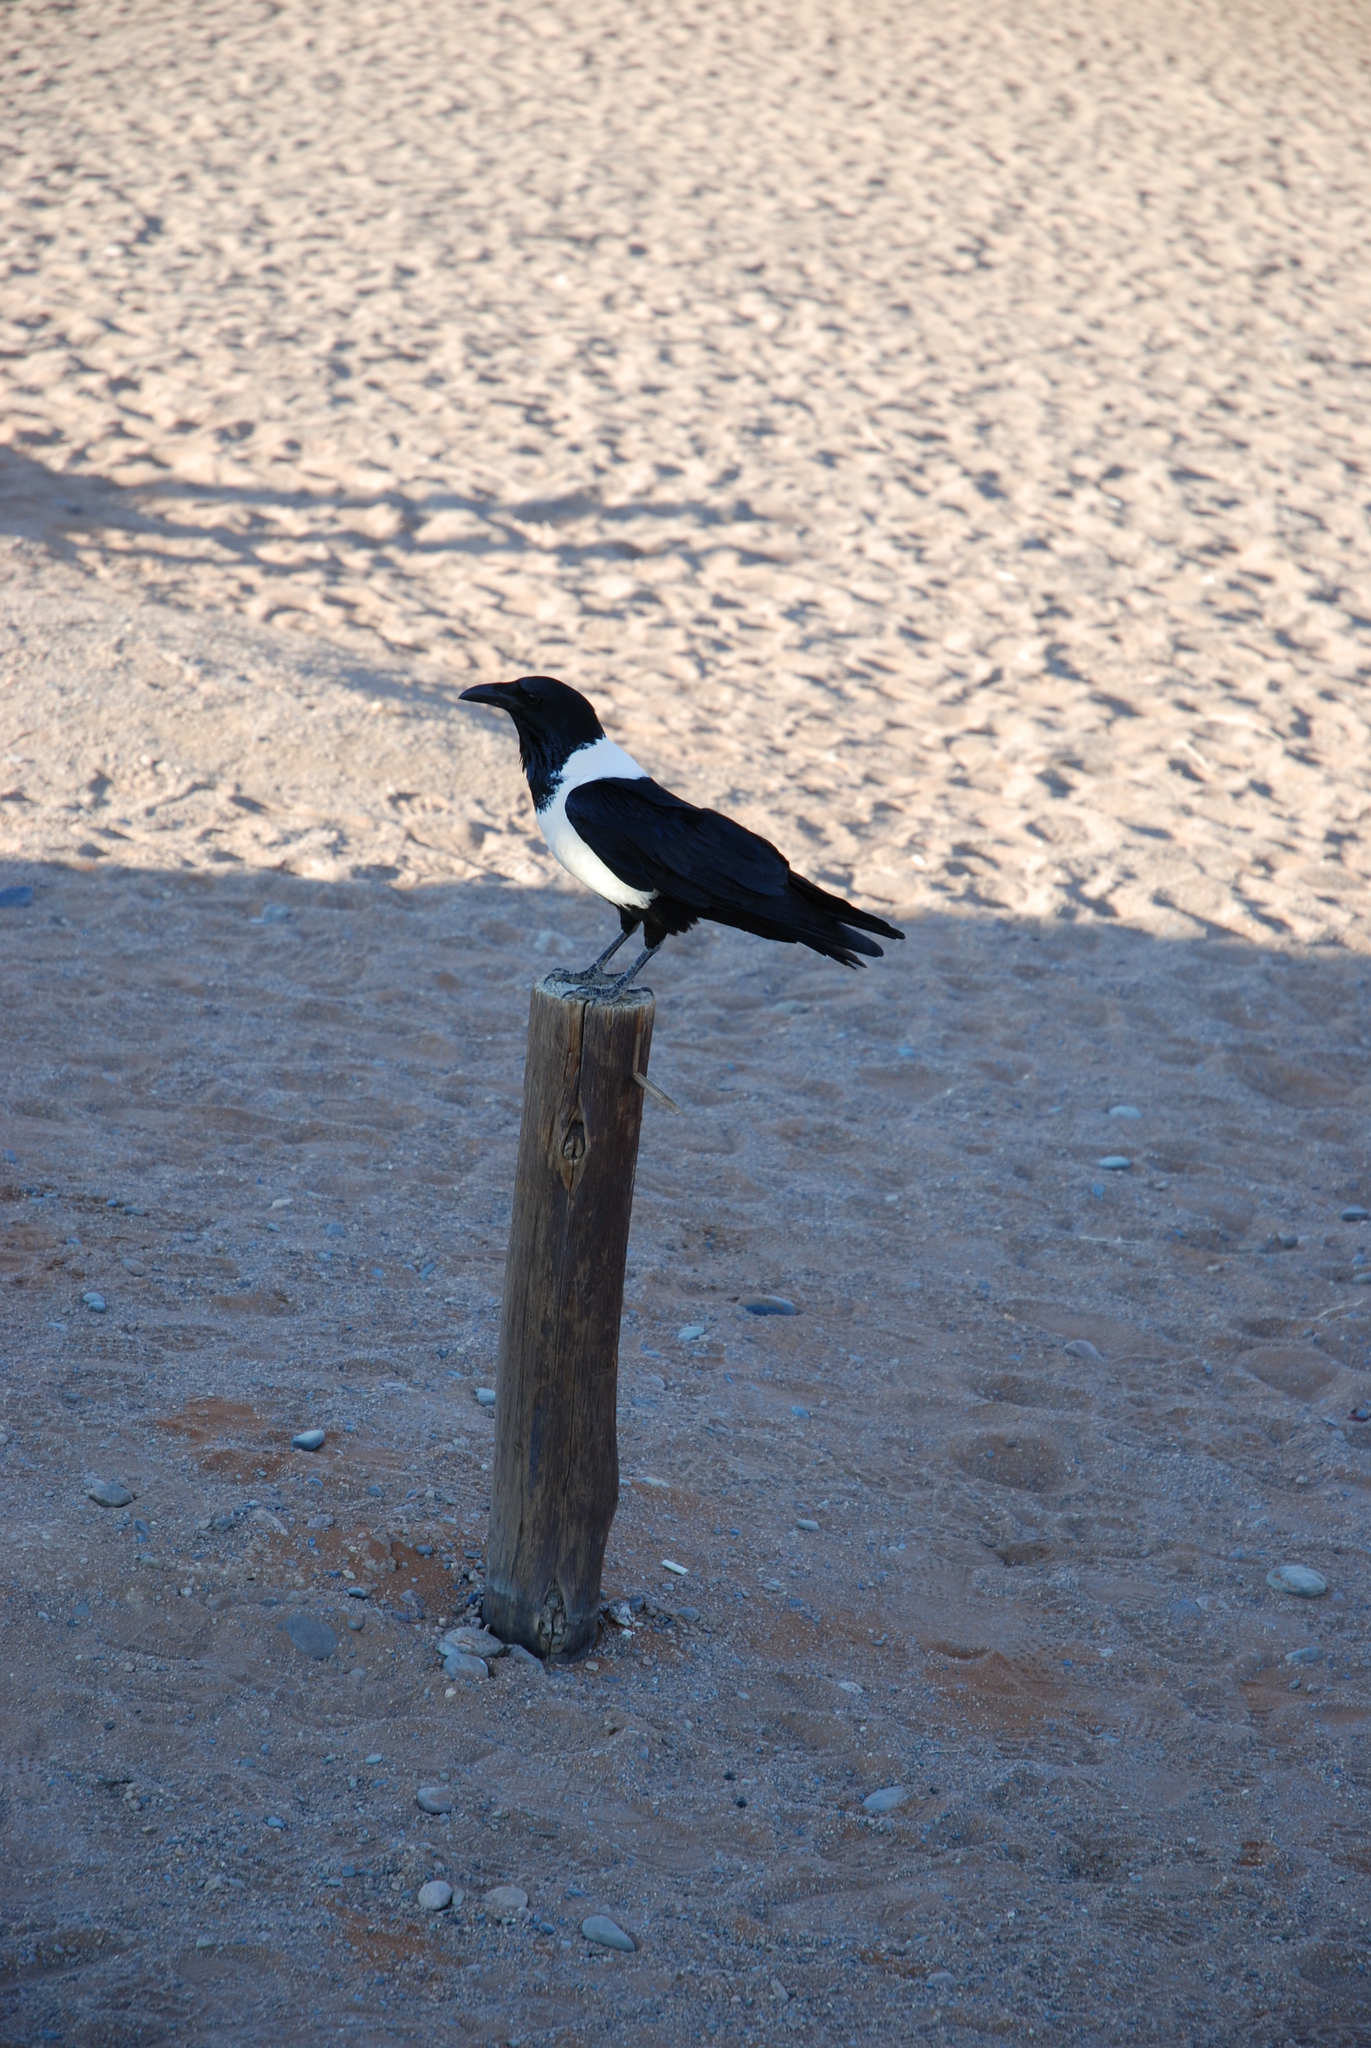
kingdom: Animalia
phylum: Chordata
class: Aves
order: Passeriformes
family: Corvidae
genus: Corvus
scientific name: Corvus albus
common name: Pied crow
